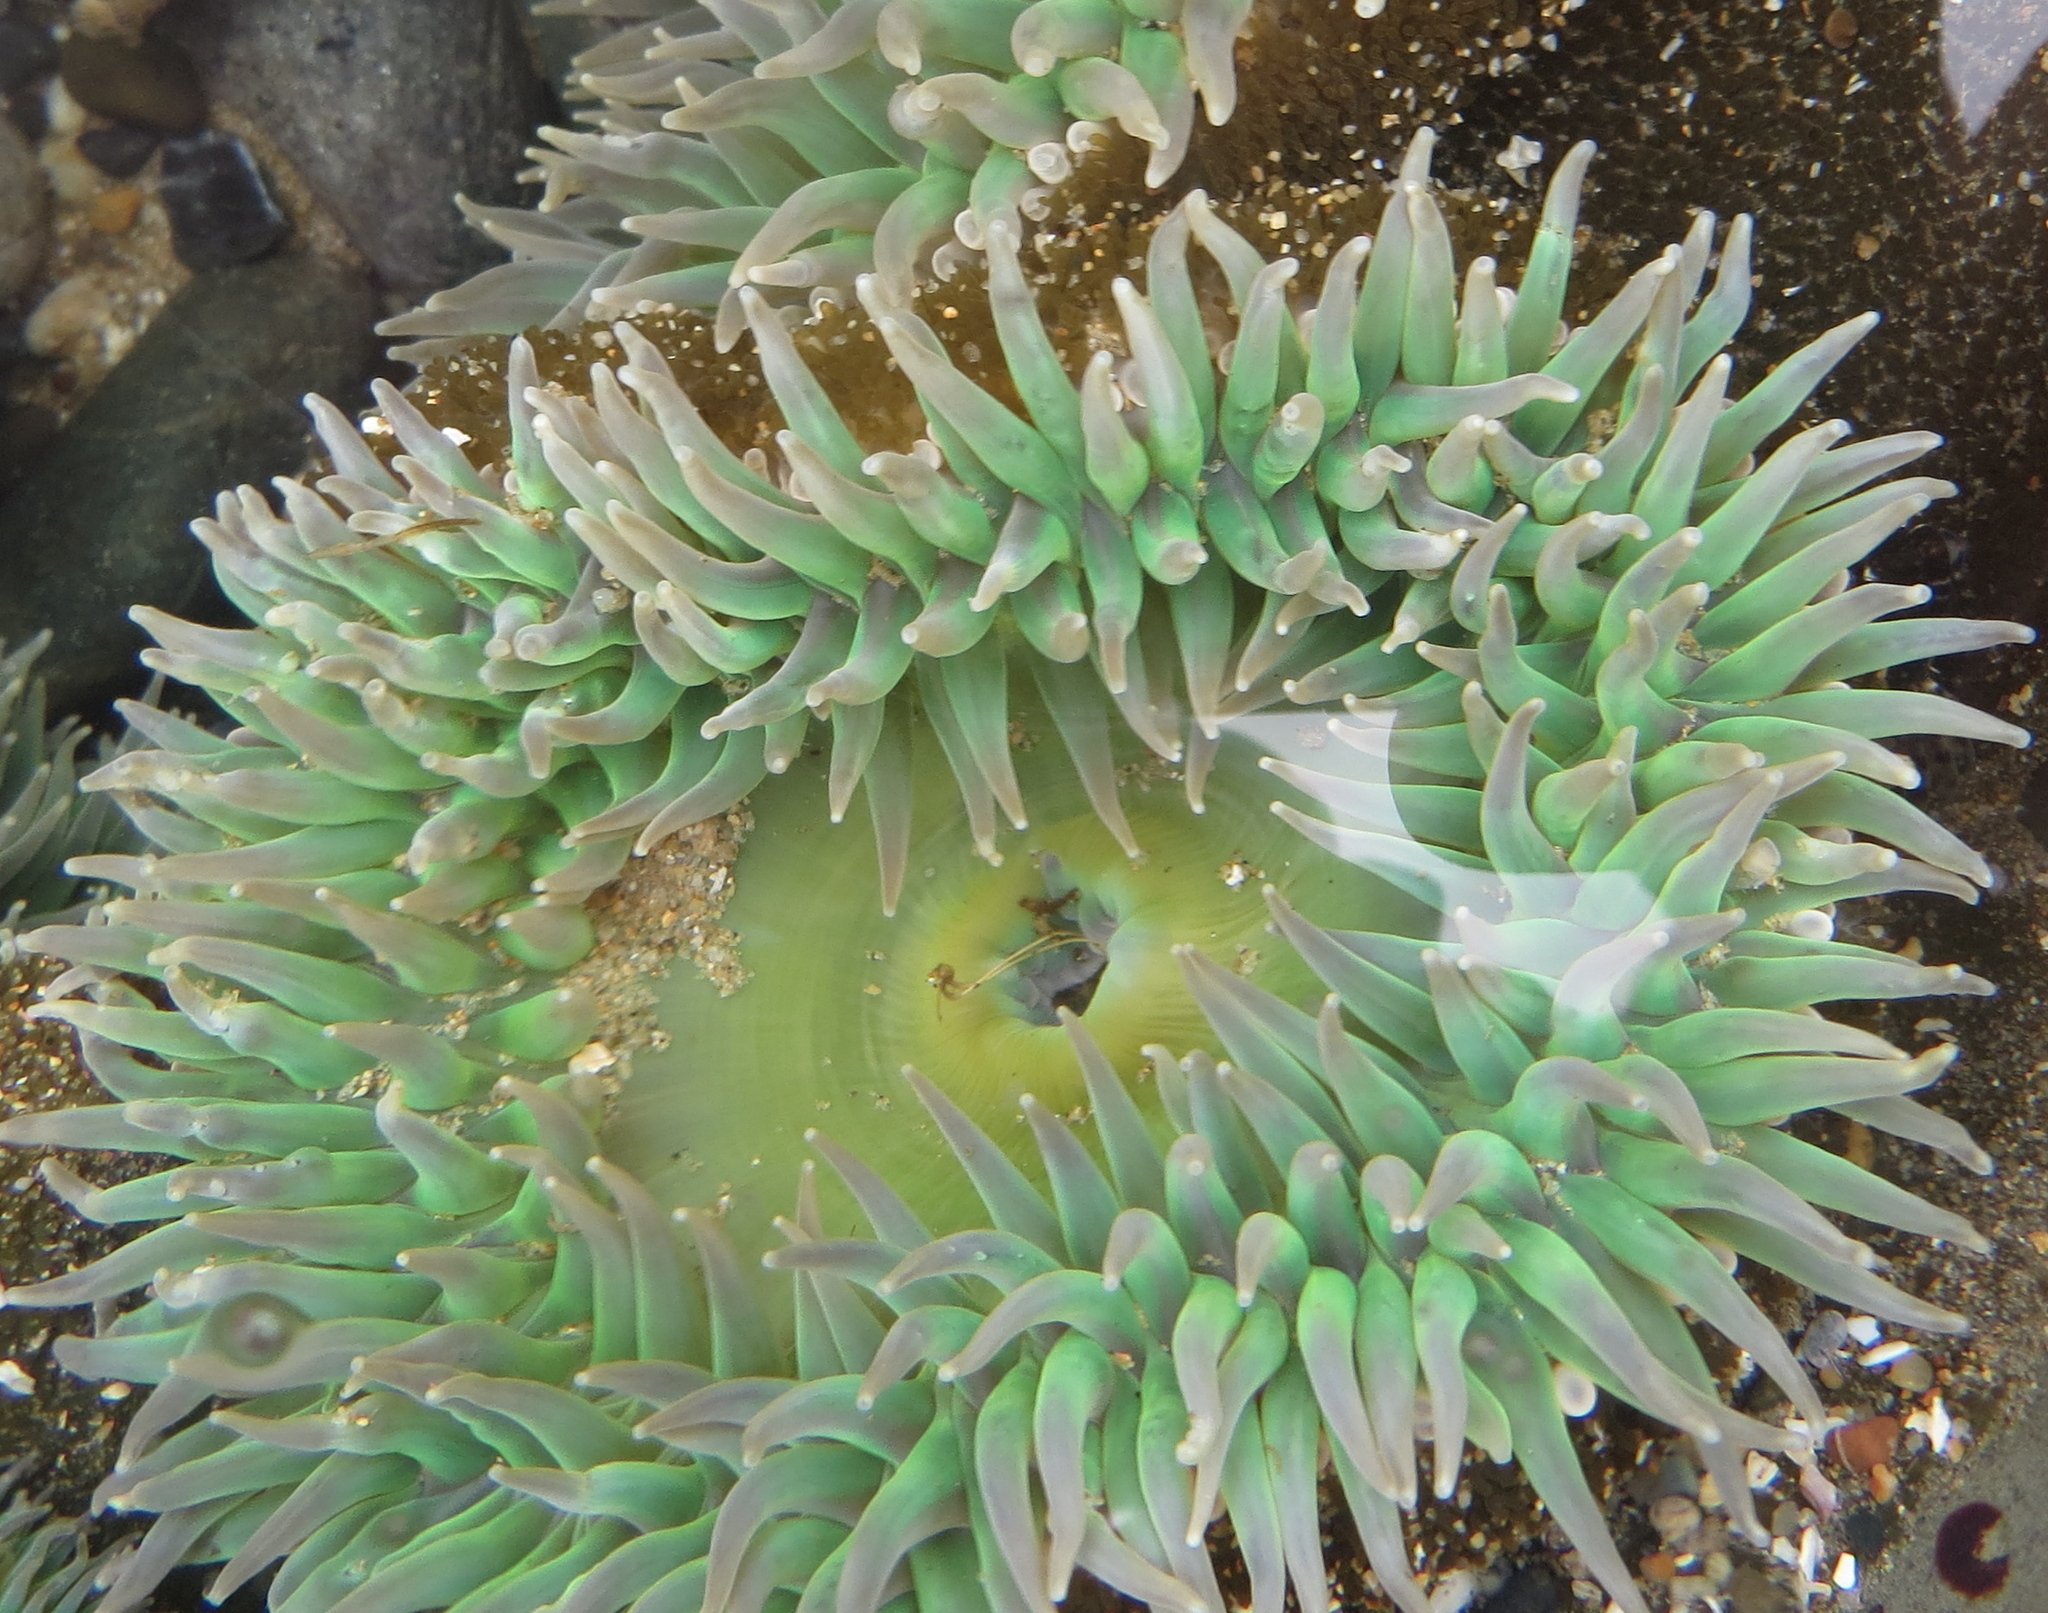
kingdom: Animalia
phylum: Cnidaria
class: Anthozoa
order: Actiniaria
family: Actiniidae
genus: Anthopleura
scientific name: Anthopleura xanthogrammica
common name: Giant green anemone
